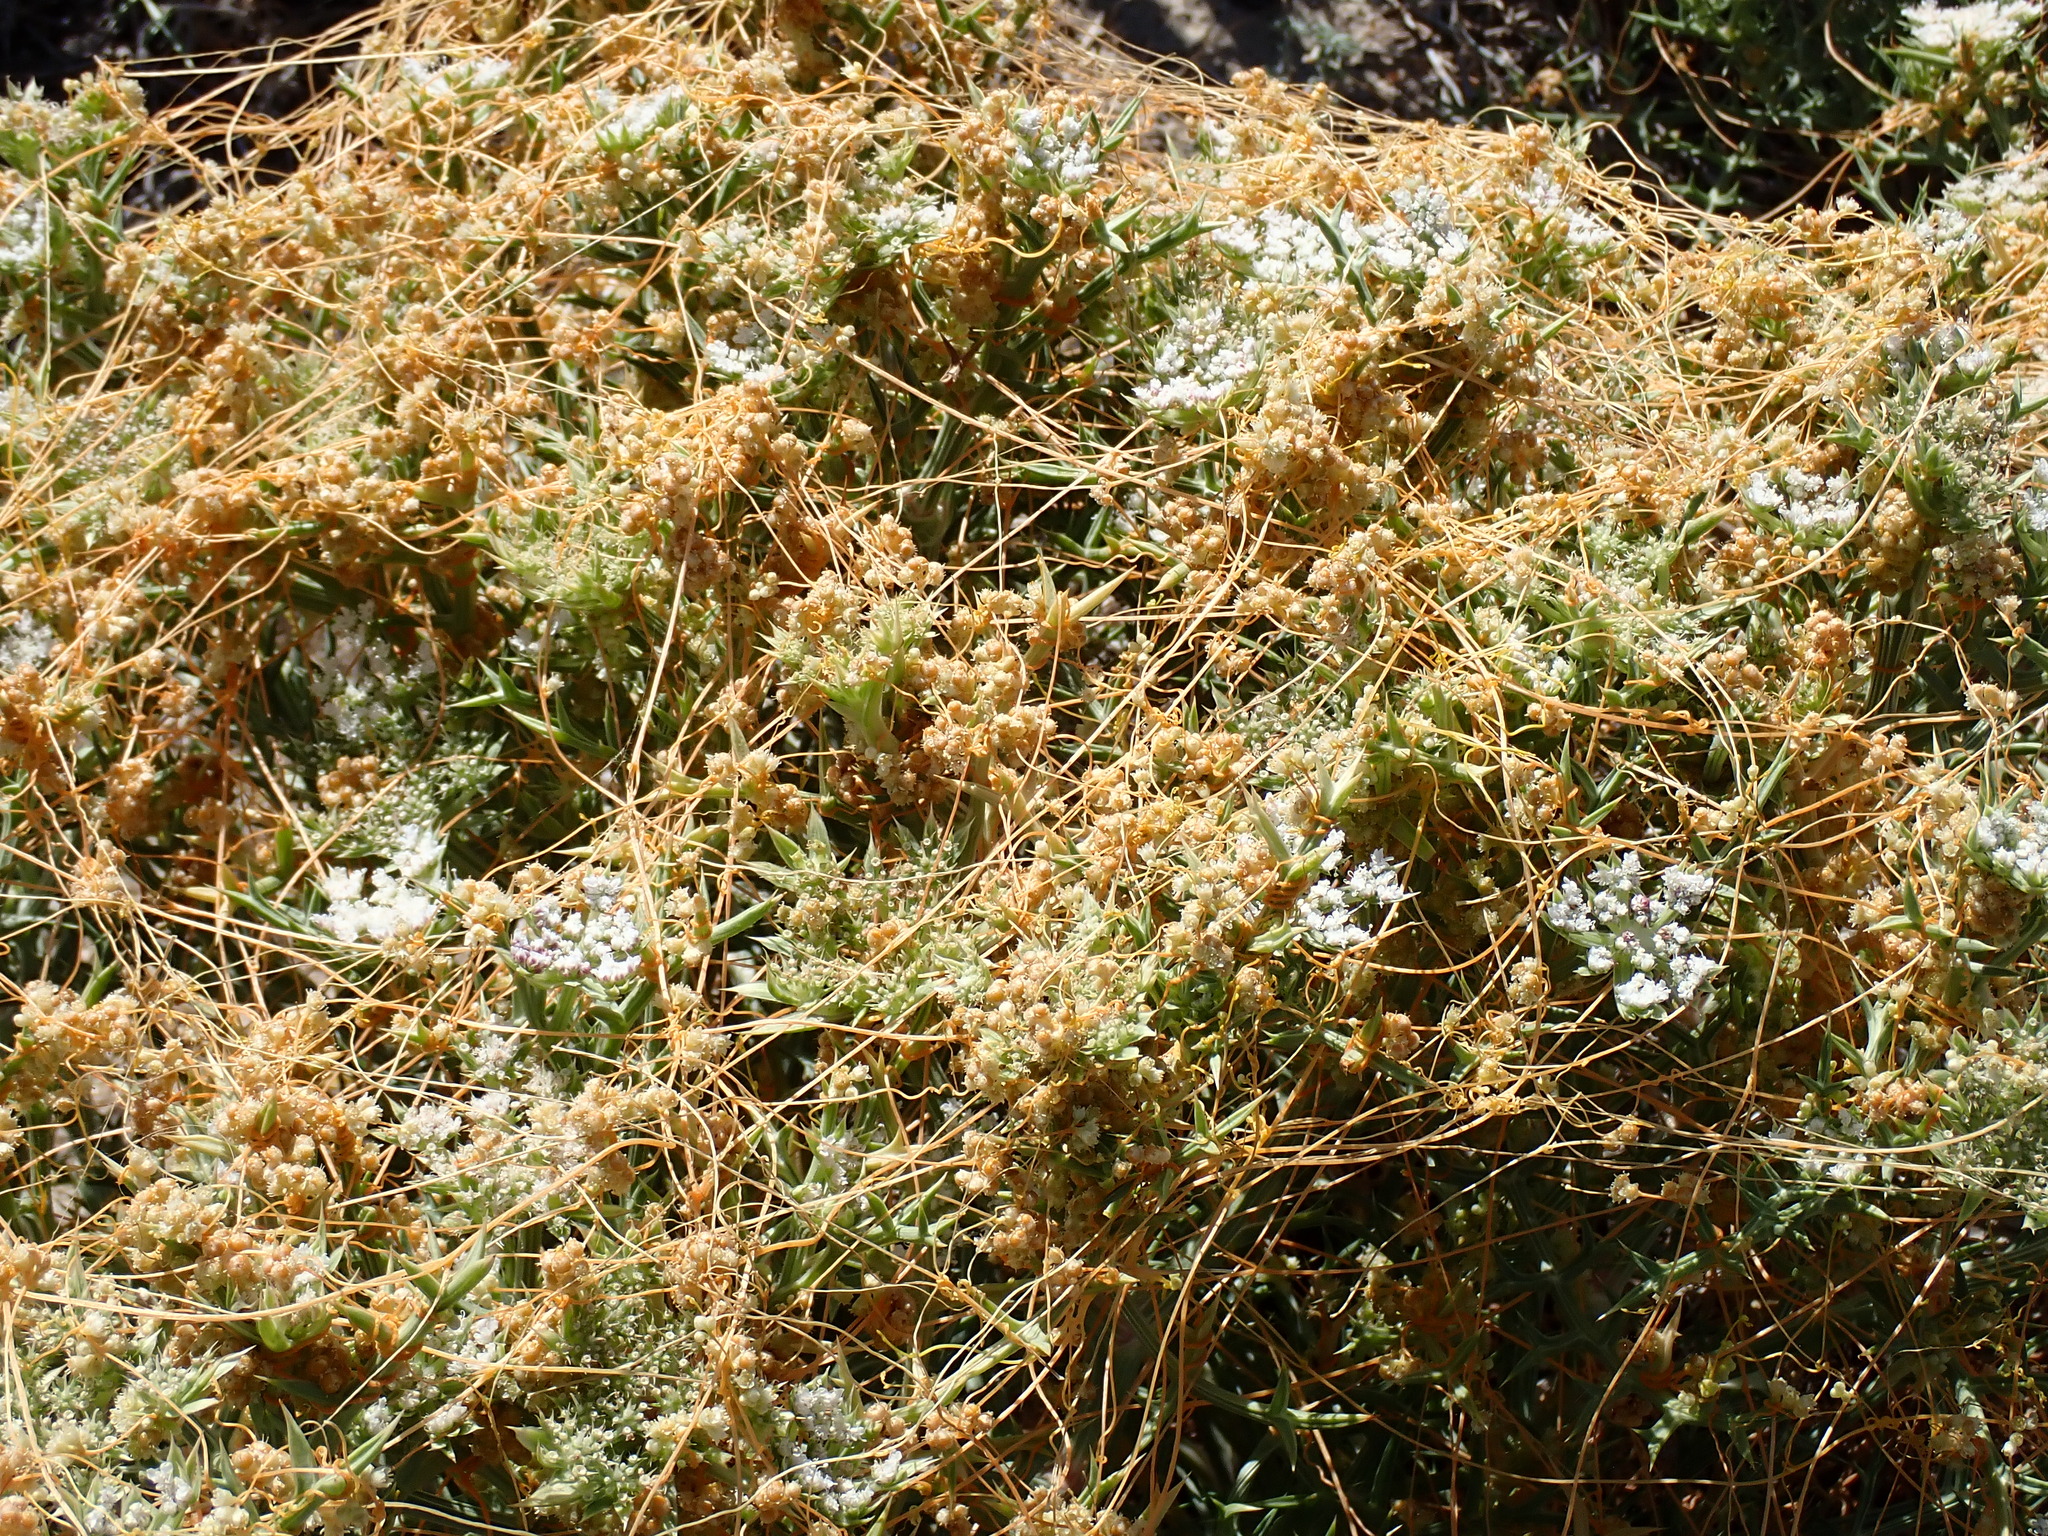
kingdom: Plantae
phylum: Tracheophyta
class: Magnoliopsida
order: Solanales
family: Convolvulaceae
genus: Cuscuta
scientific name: Cuscuta campestris
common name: Yellow dodder
